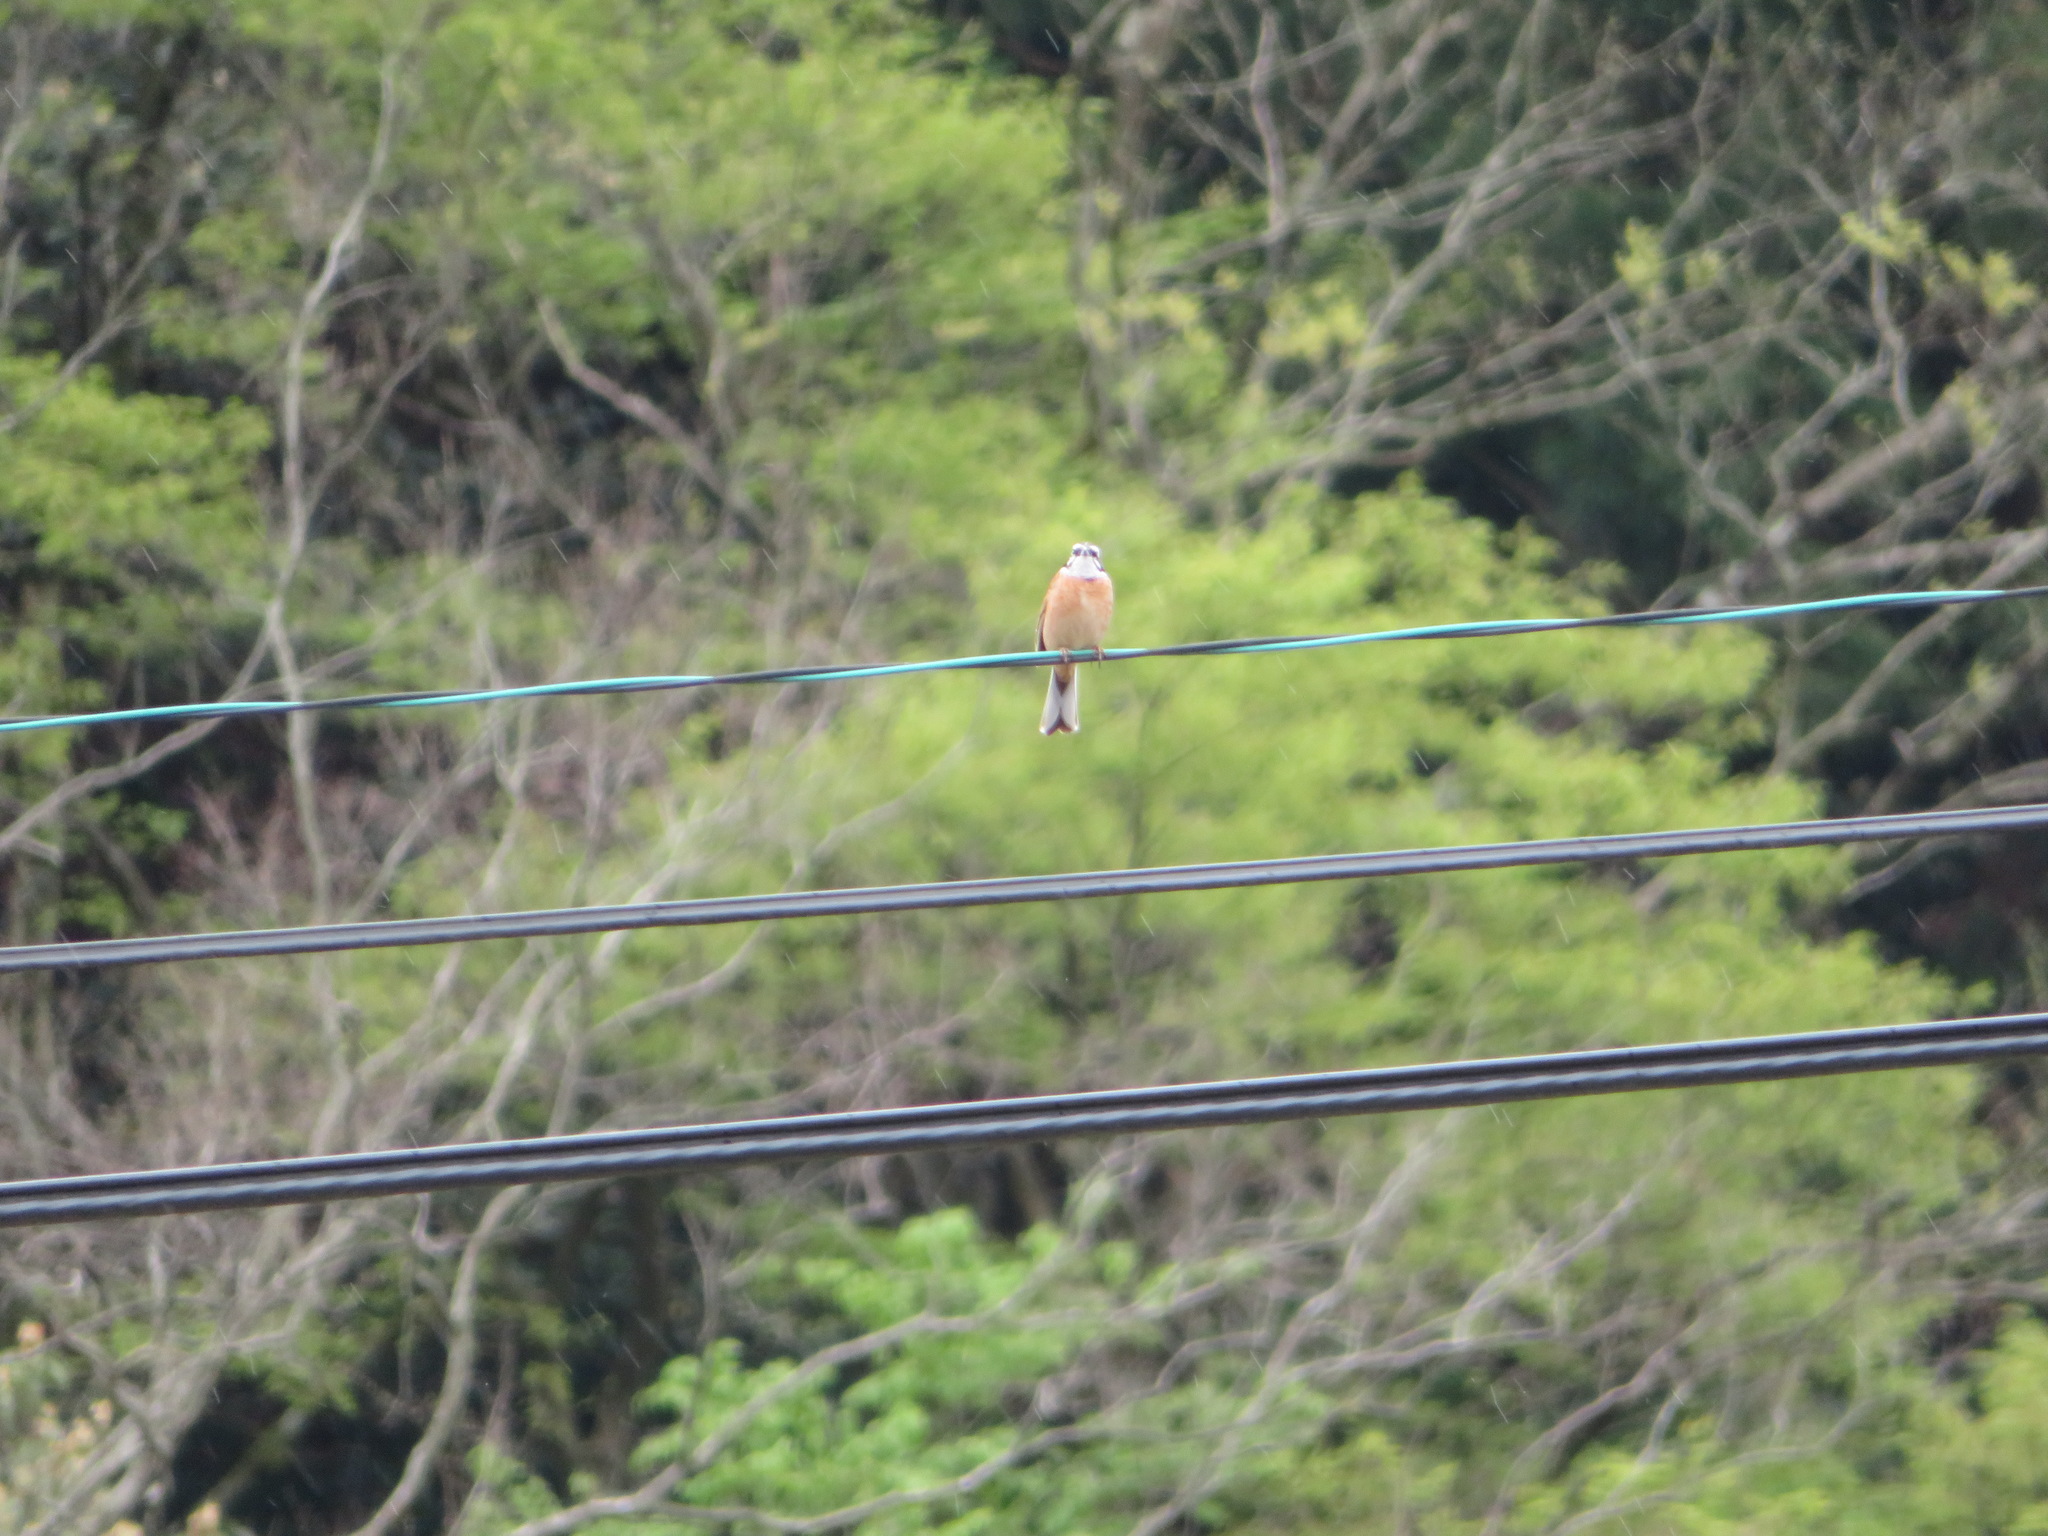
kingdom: Animalia
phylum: Chordata
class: Aves
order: Passeriformes
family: Emberizidae
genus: Emberiza
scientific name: Emberiza cioides
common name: Meadow bunting
